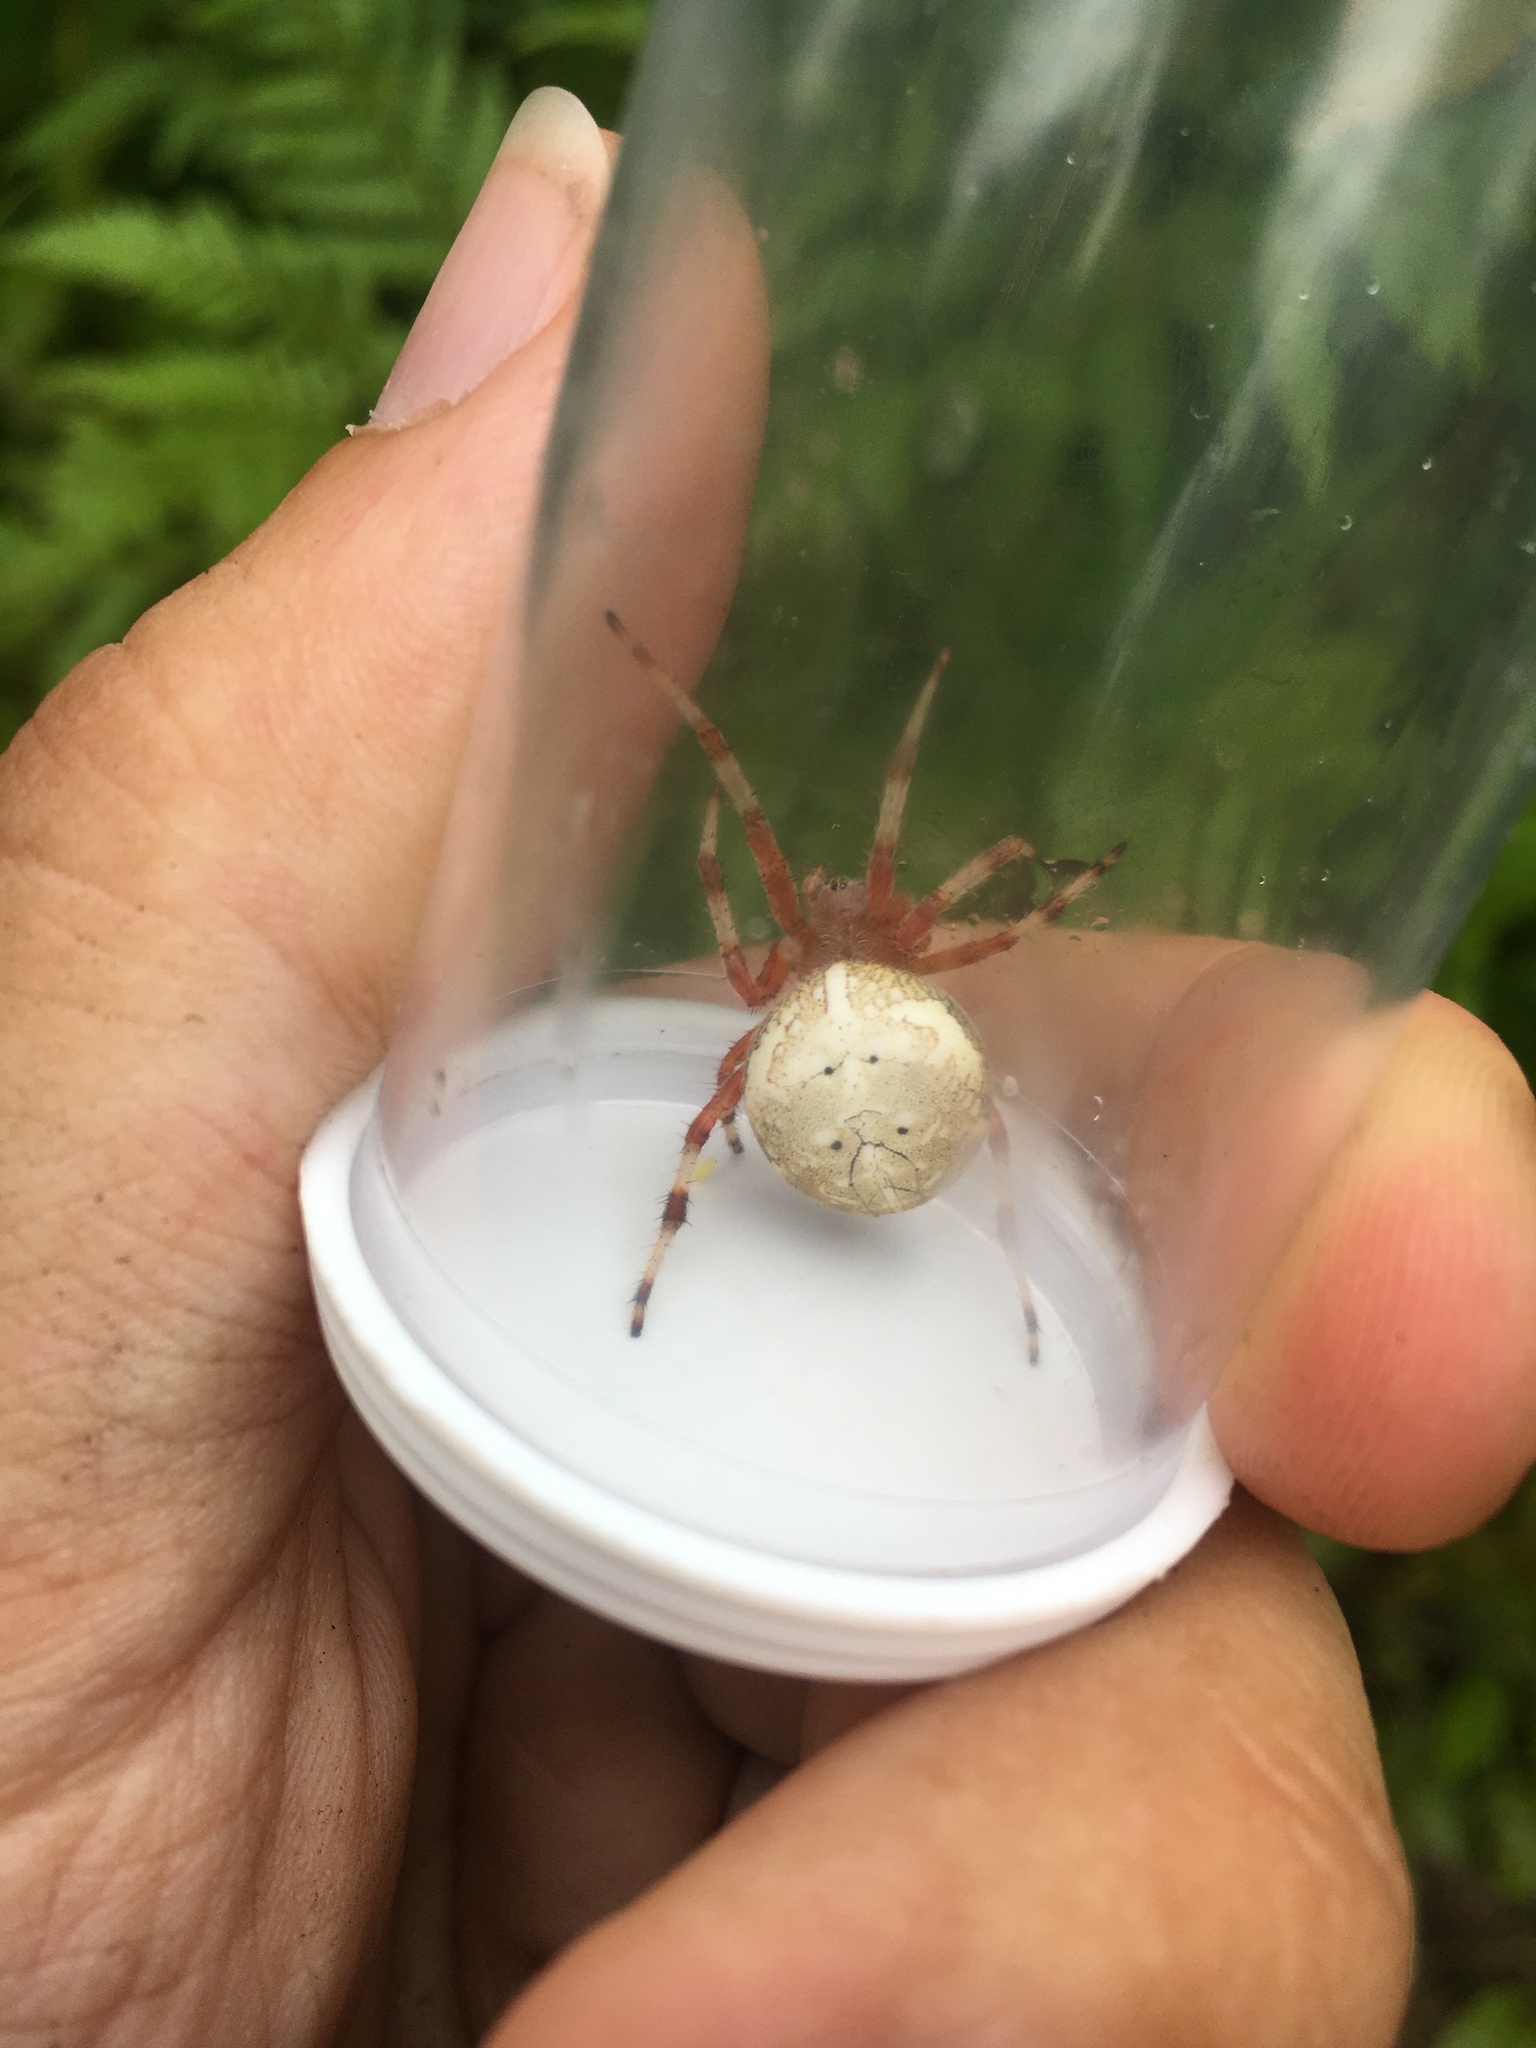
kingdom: Animalia
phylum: Arthropoda
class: Arachnida
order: Araneae
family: Araneidae
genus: Araneus
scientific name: Araneus marmoreus
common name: Marbled orbweaver
